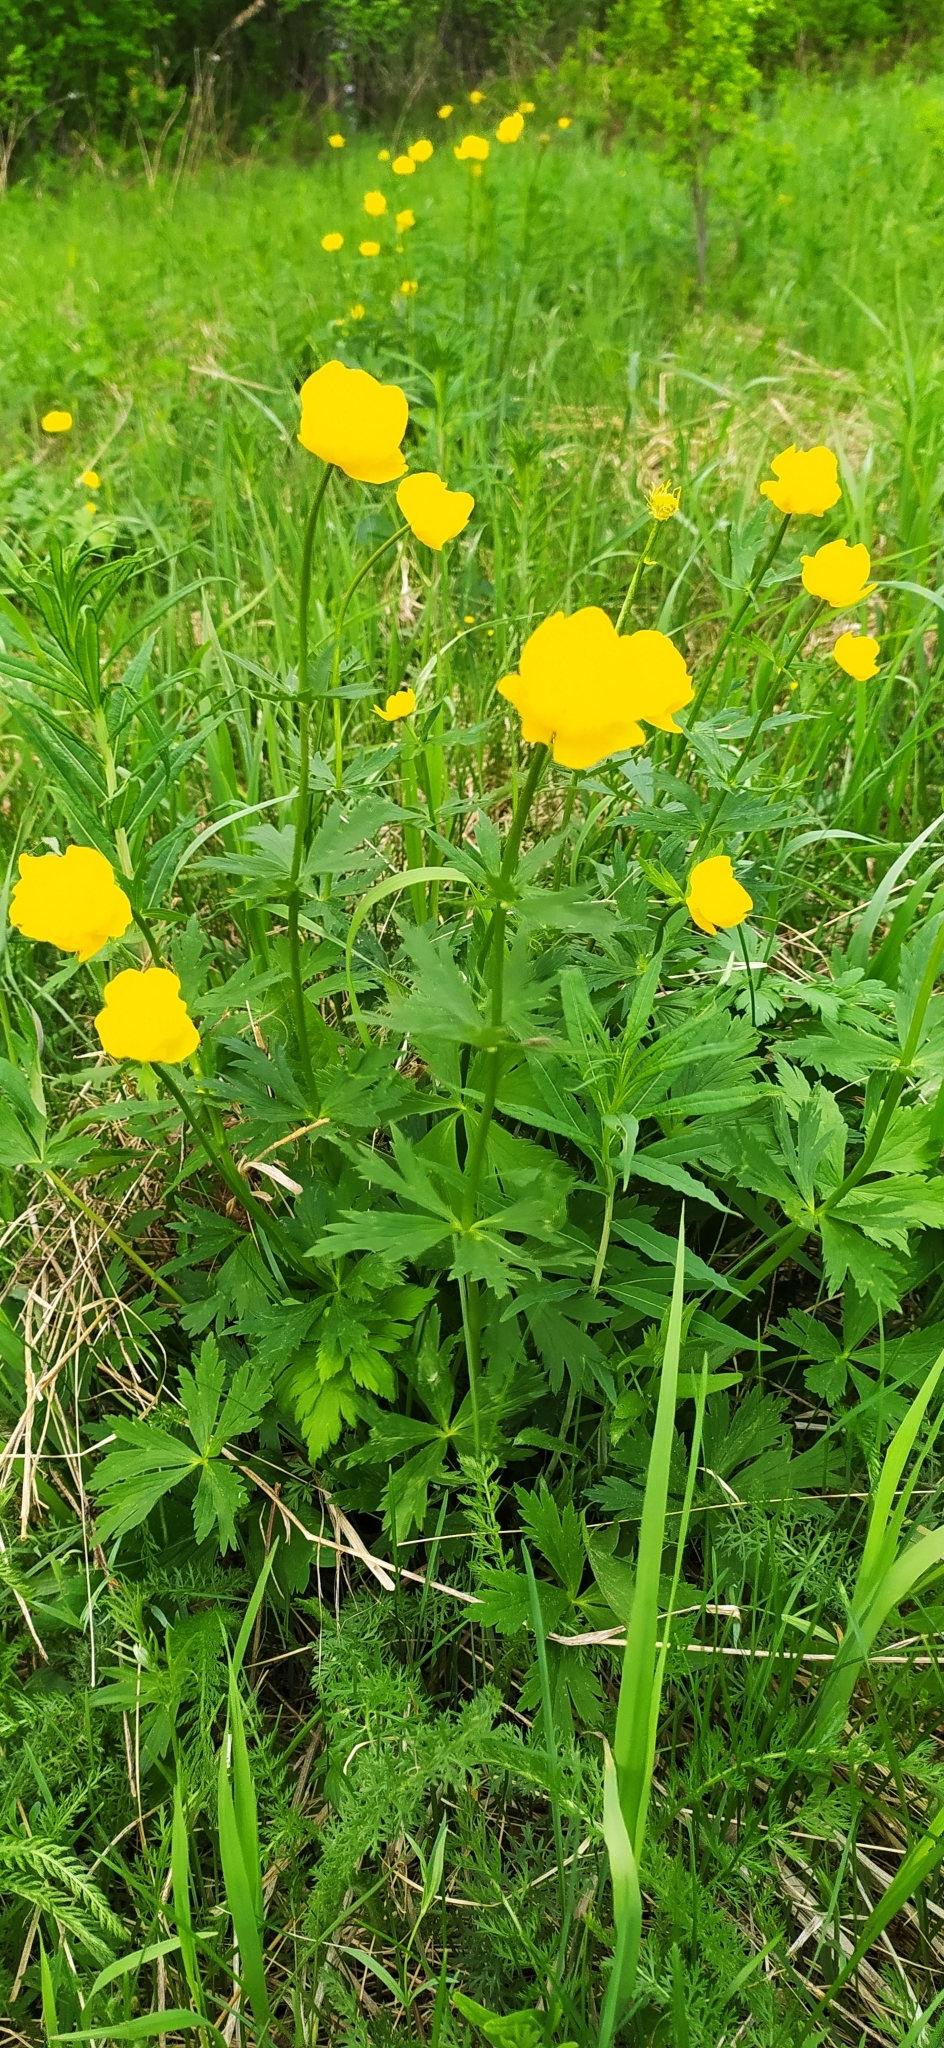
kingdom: Plantae
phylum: Tracheophyta
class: Magnoliopsida
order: Ranunculales
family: Ranunculaceae
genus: Trollius
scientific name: Trollius europaeus
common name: European globeflower
